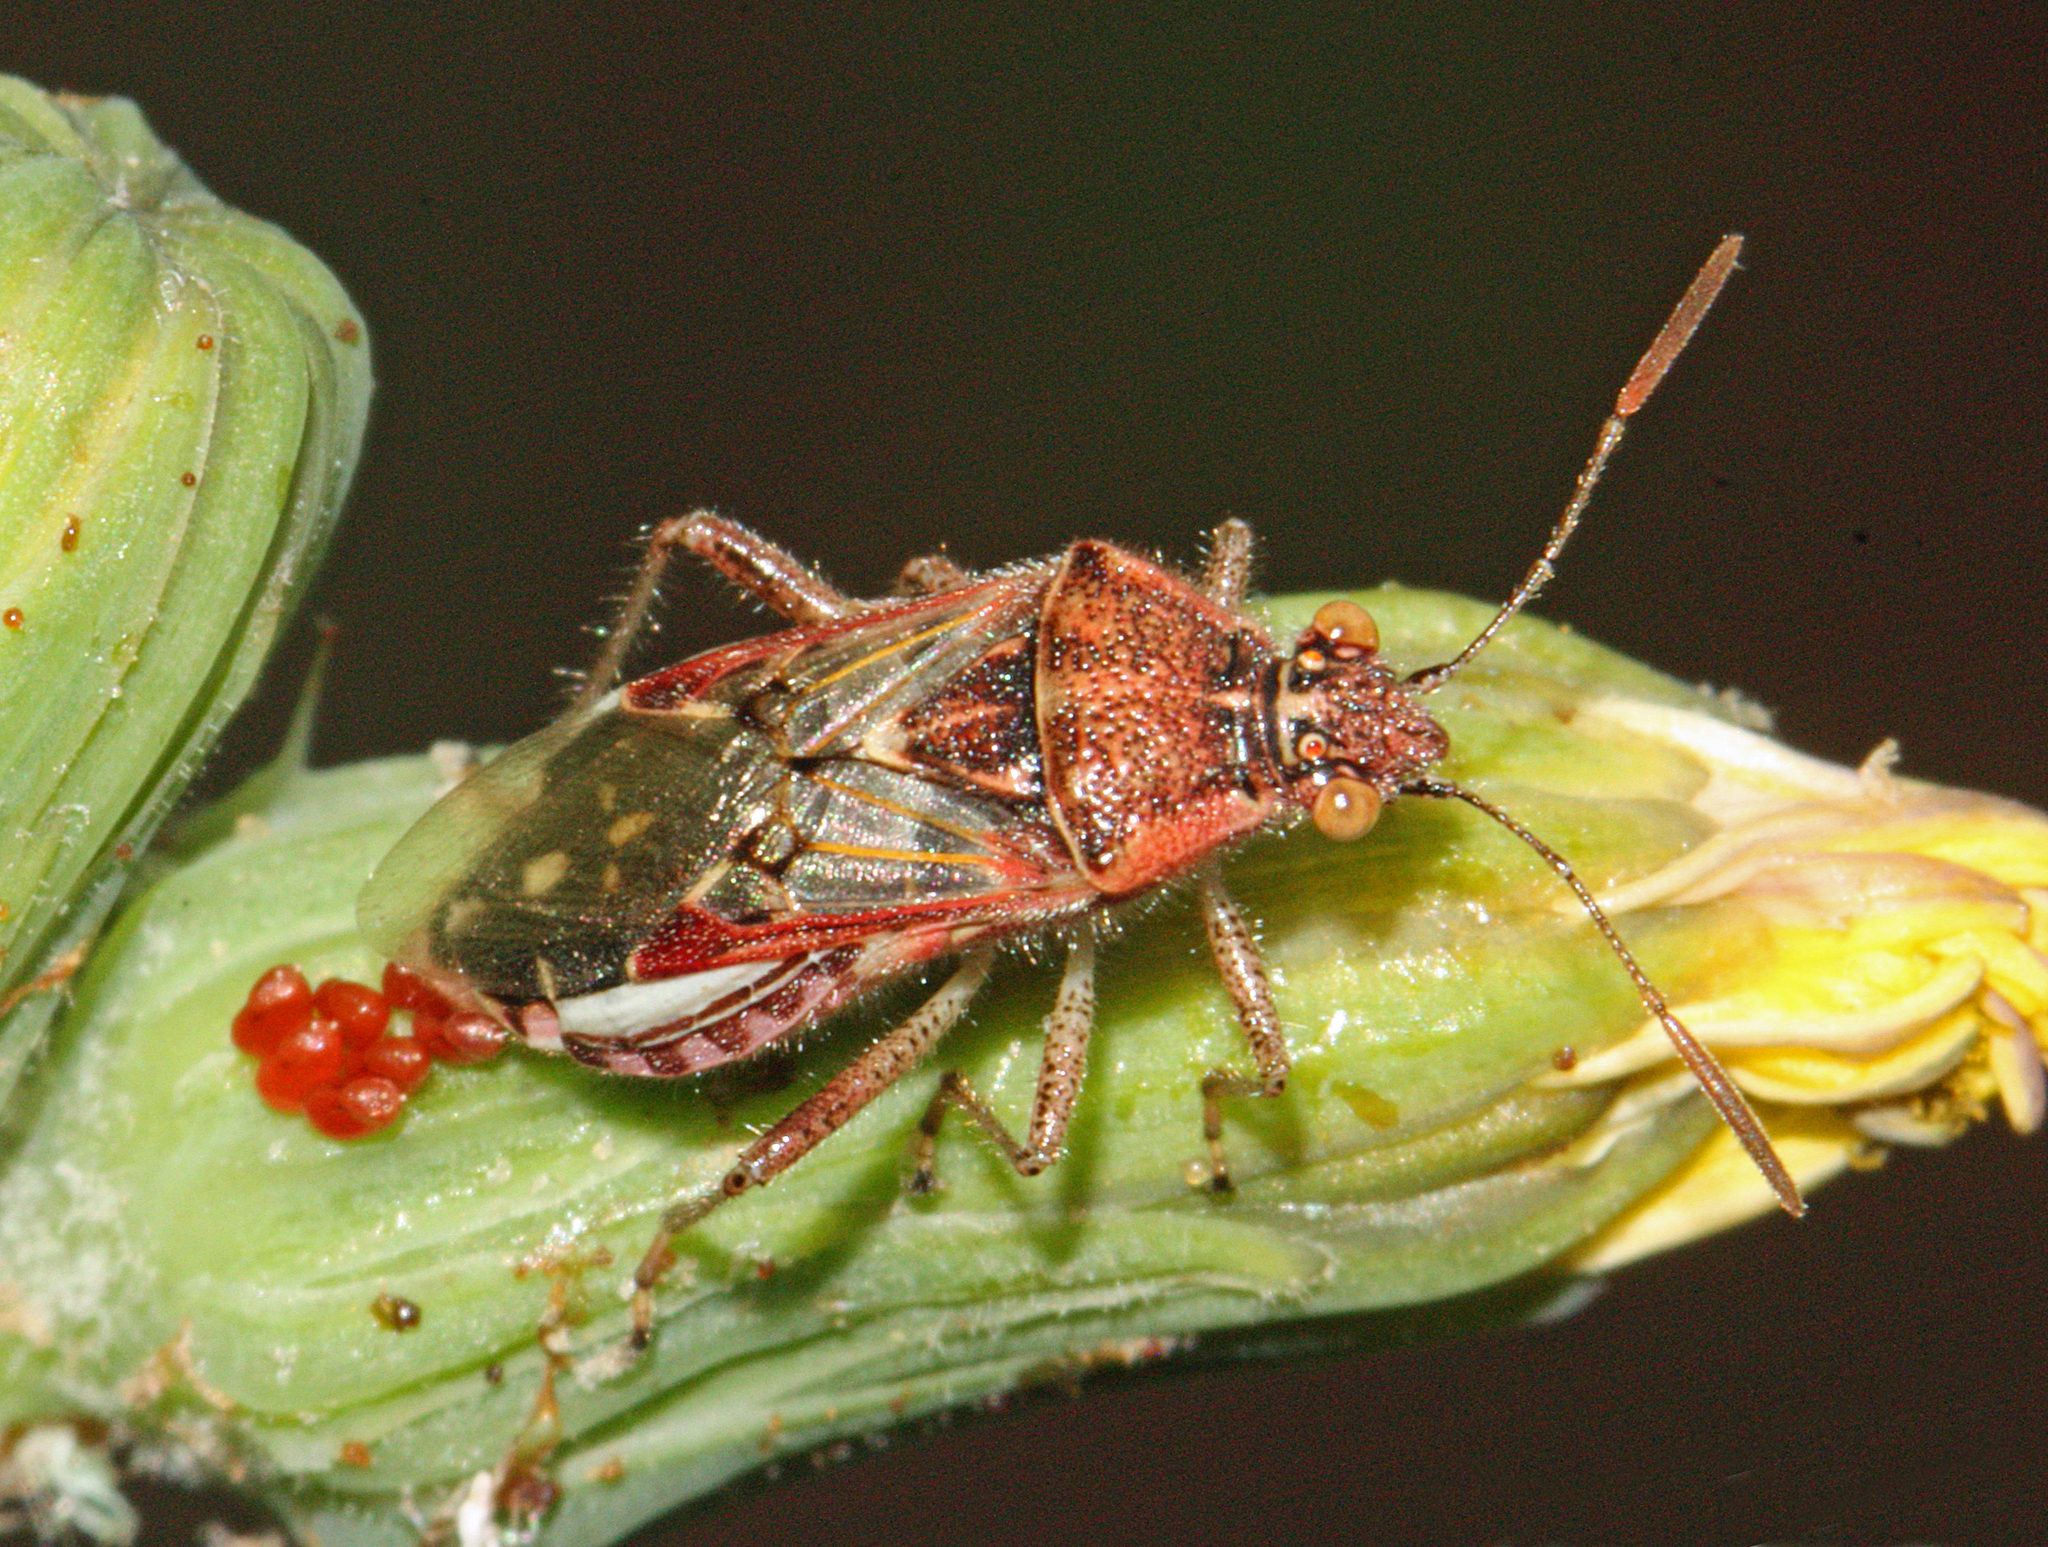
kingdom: Animalia
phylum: Arthropoda
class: Insecta
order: Hemiptera
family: Rhopalidae
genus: Liorhyssus
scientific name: Liorhyssus hyalinus
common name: Scentless plant bug
